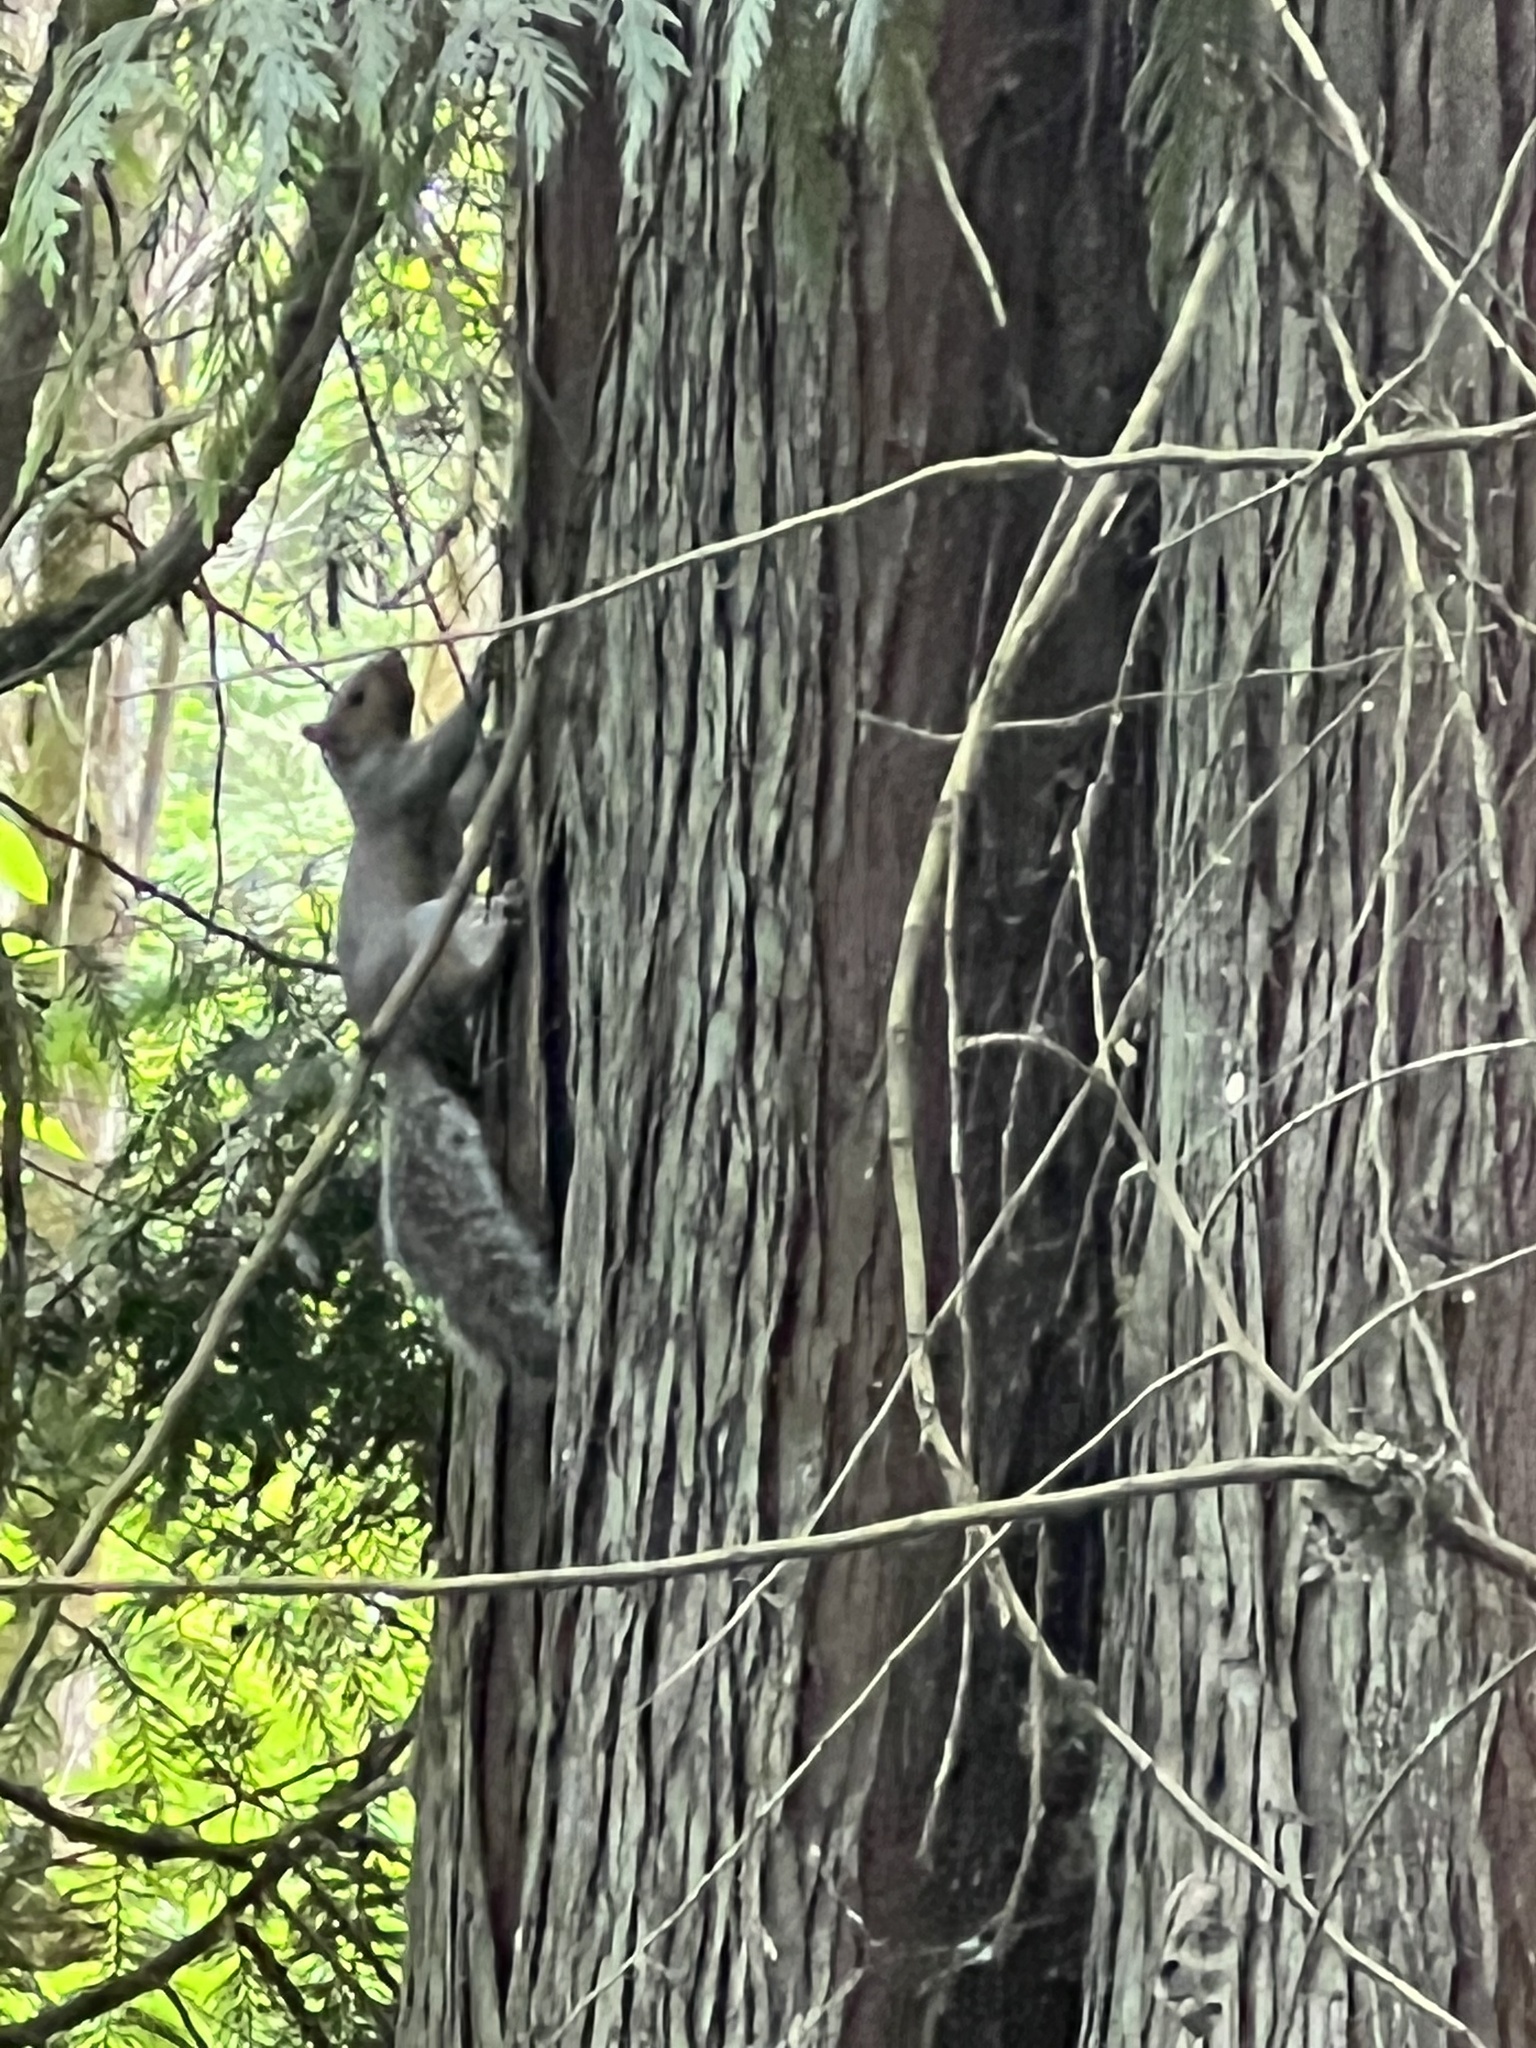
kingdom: Animalia
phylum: Chordata
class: Mammalia
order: Rodentia
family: Sciuridae
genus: Sciurus
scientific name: Sciurus carolinensis
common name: Eastern gray squirrel
